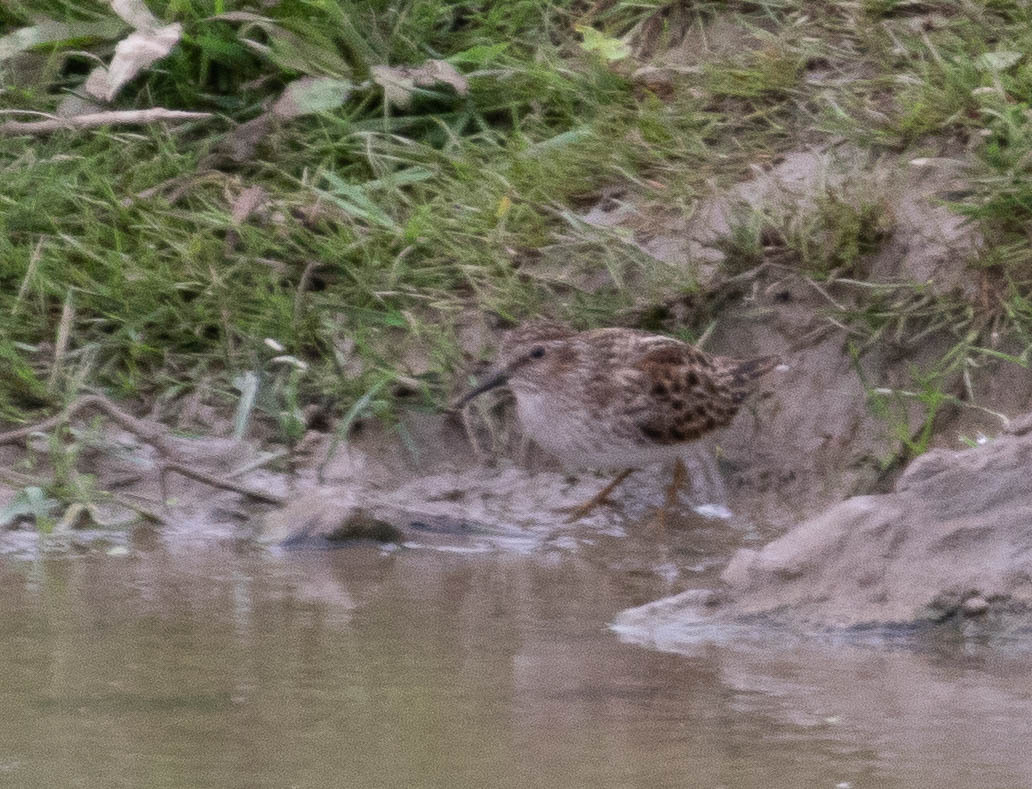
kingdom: Animalia
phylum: Chordata
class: Aves
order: Charadriiformes
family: Scolopacidae
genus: Calidris
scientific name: Calidris minutilla
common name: Least sandpiper
